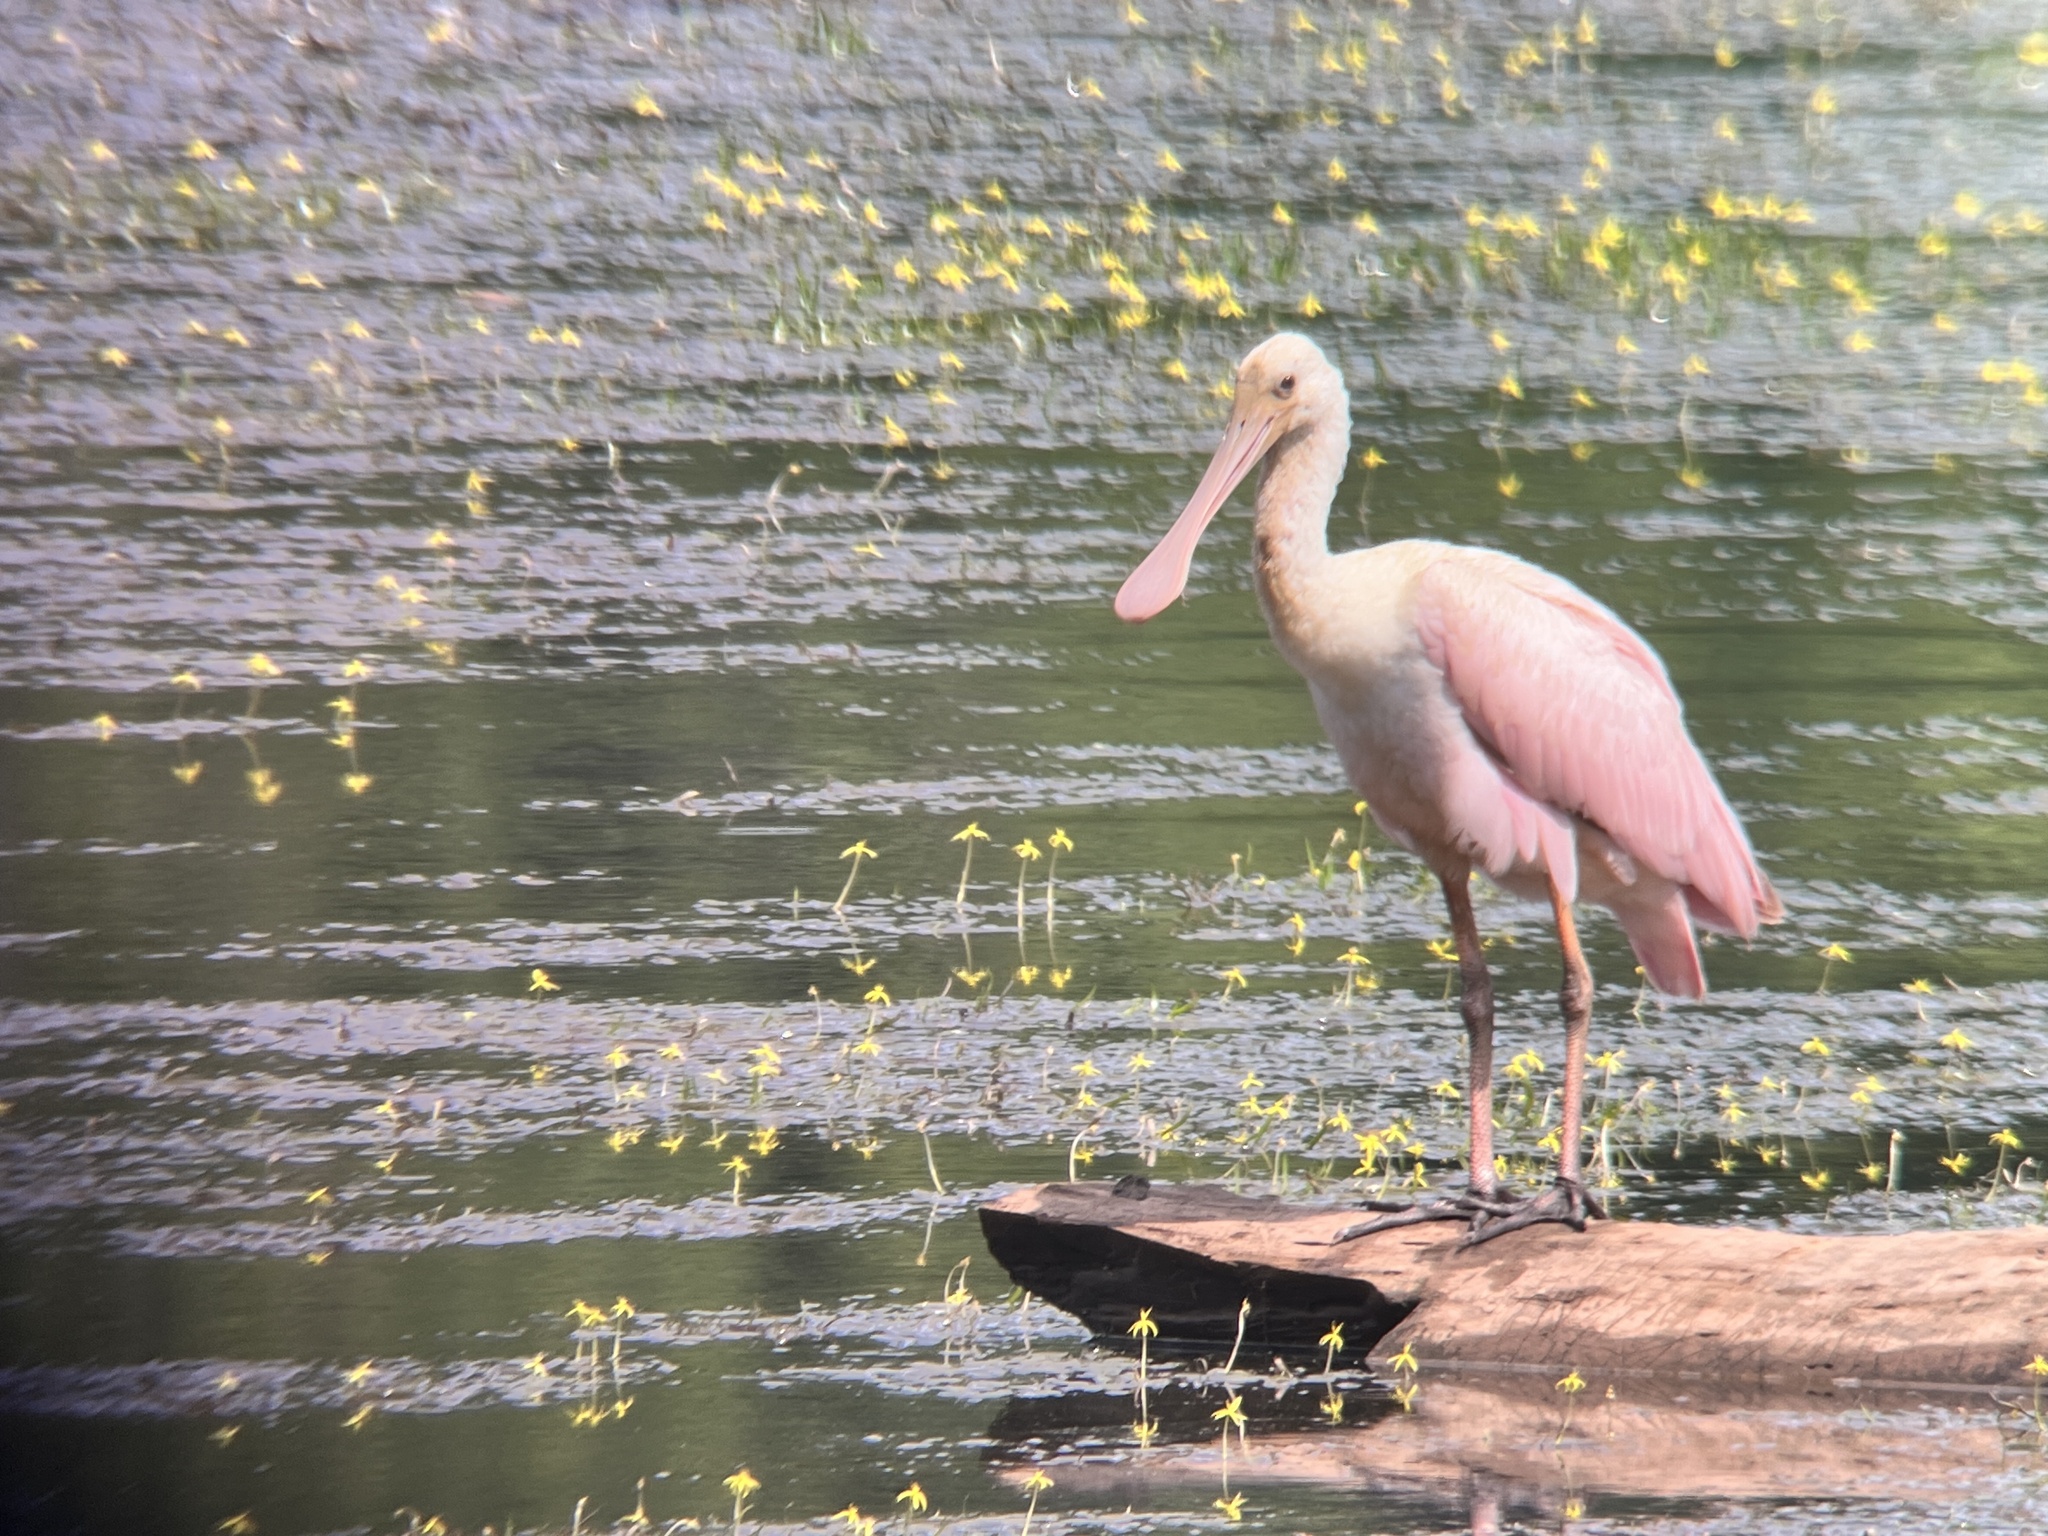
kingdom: Animalia
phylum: Chordata
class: Aves
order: Pelecaniformes
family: Threskiornithidae
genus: Platalea
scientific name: Platalea ajaja
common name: Roseate spoonbill
